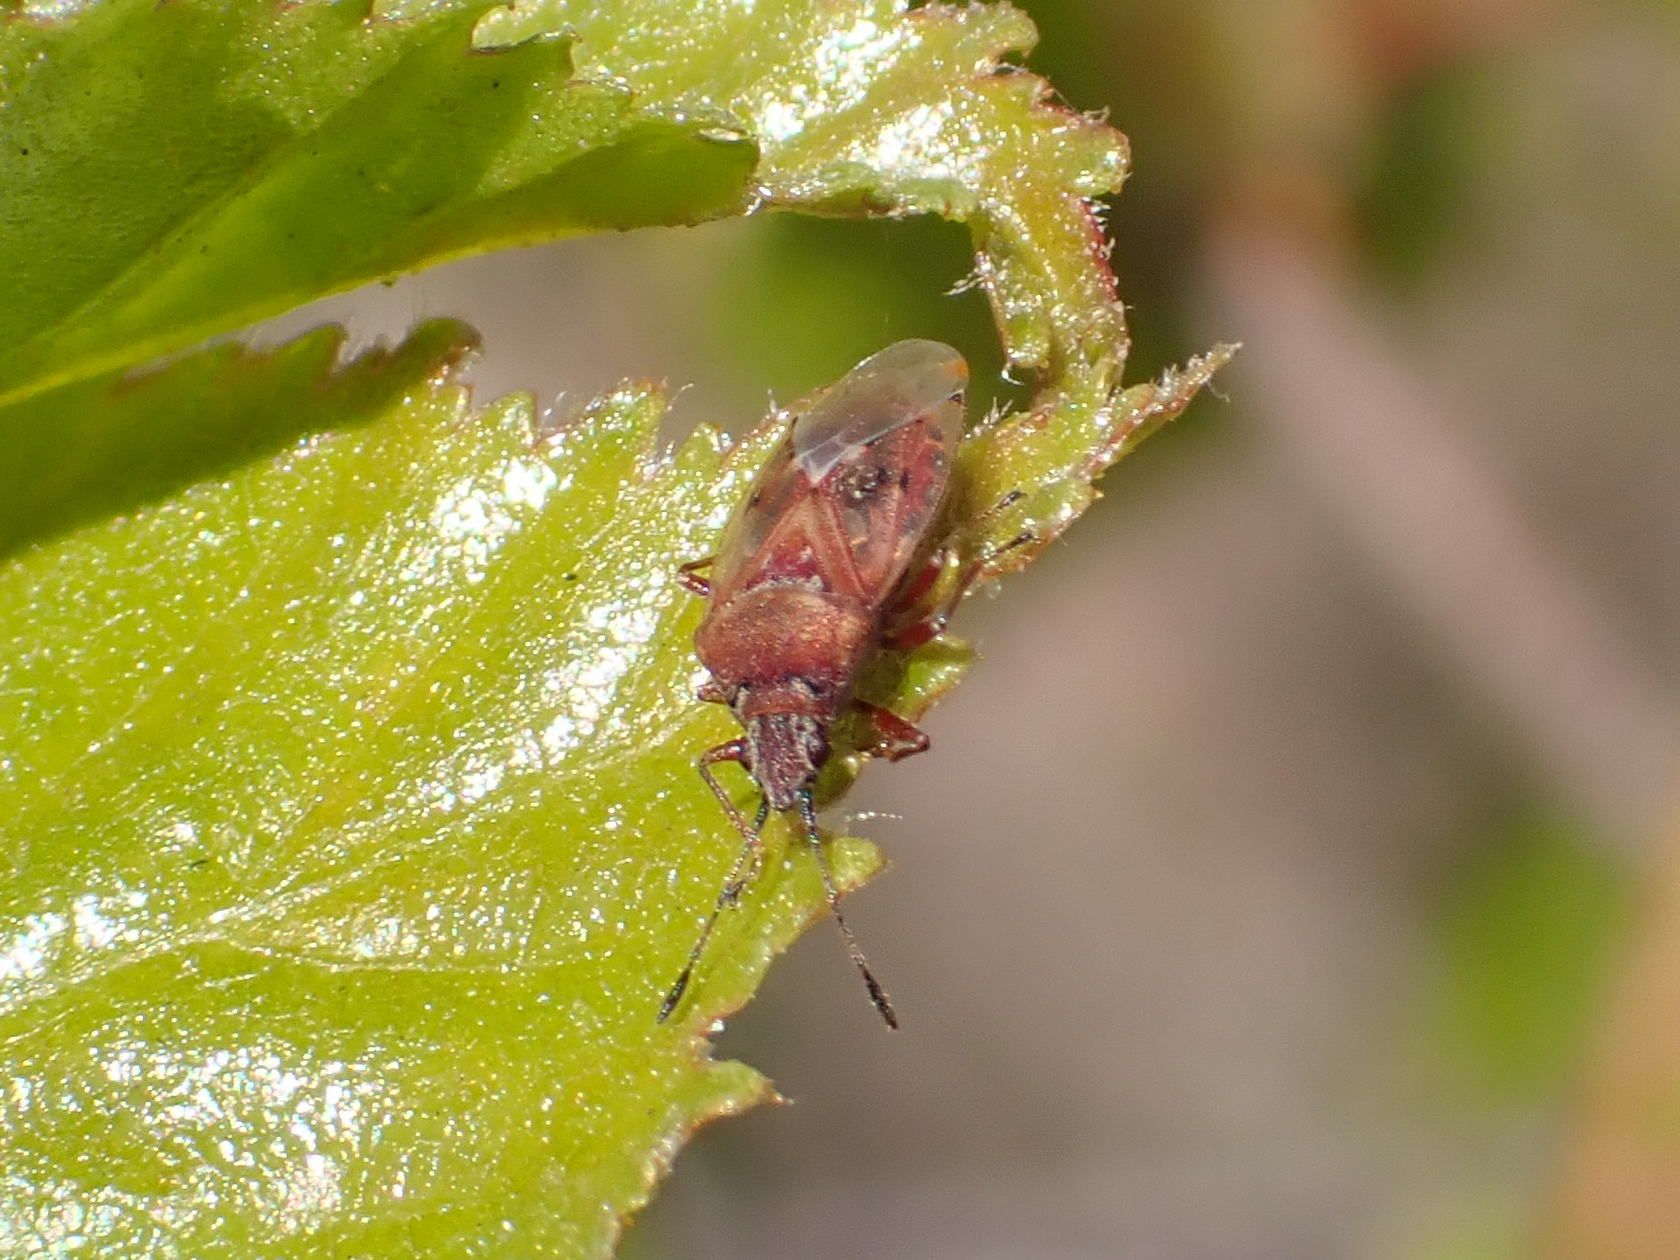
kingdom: Animalia
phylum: Arthropoda
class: Insecta
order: Hemiptera
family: Lygaeidae
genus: Kleidocerys
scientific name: Kleidocerys resedae
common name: Birch catkin bug
